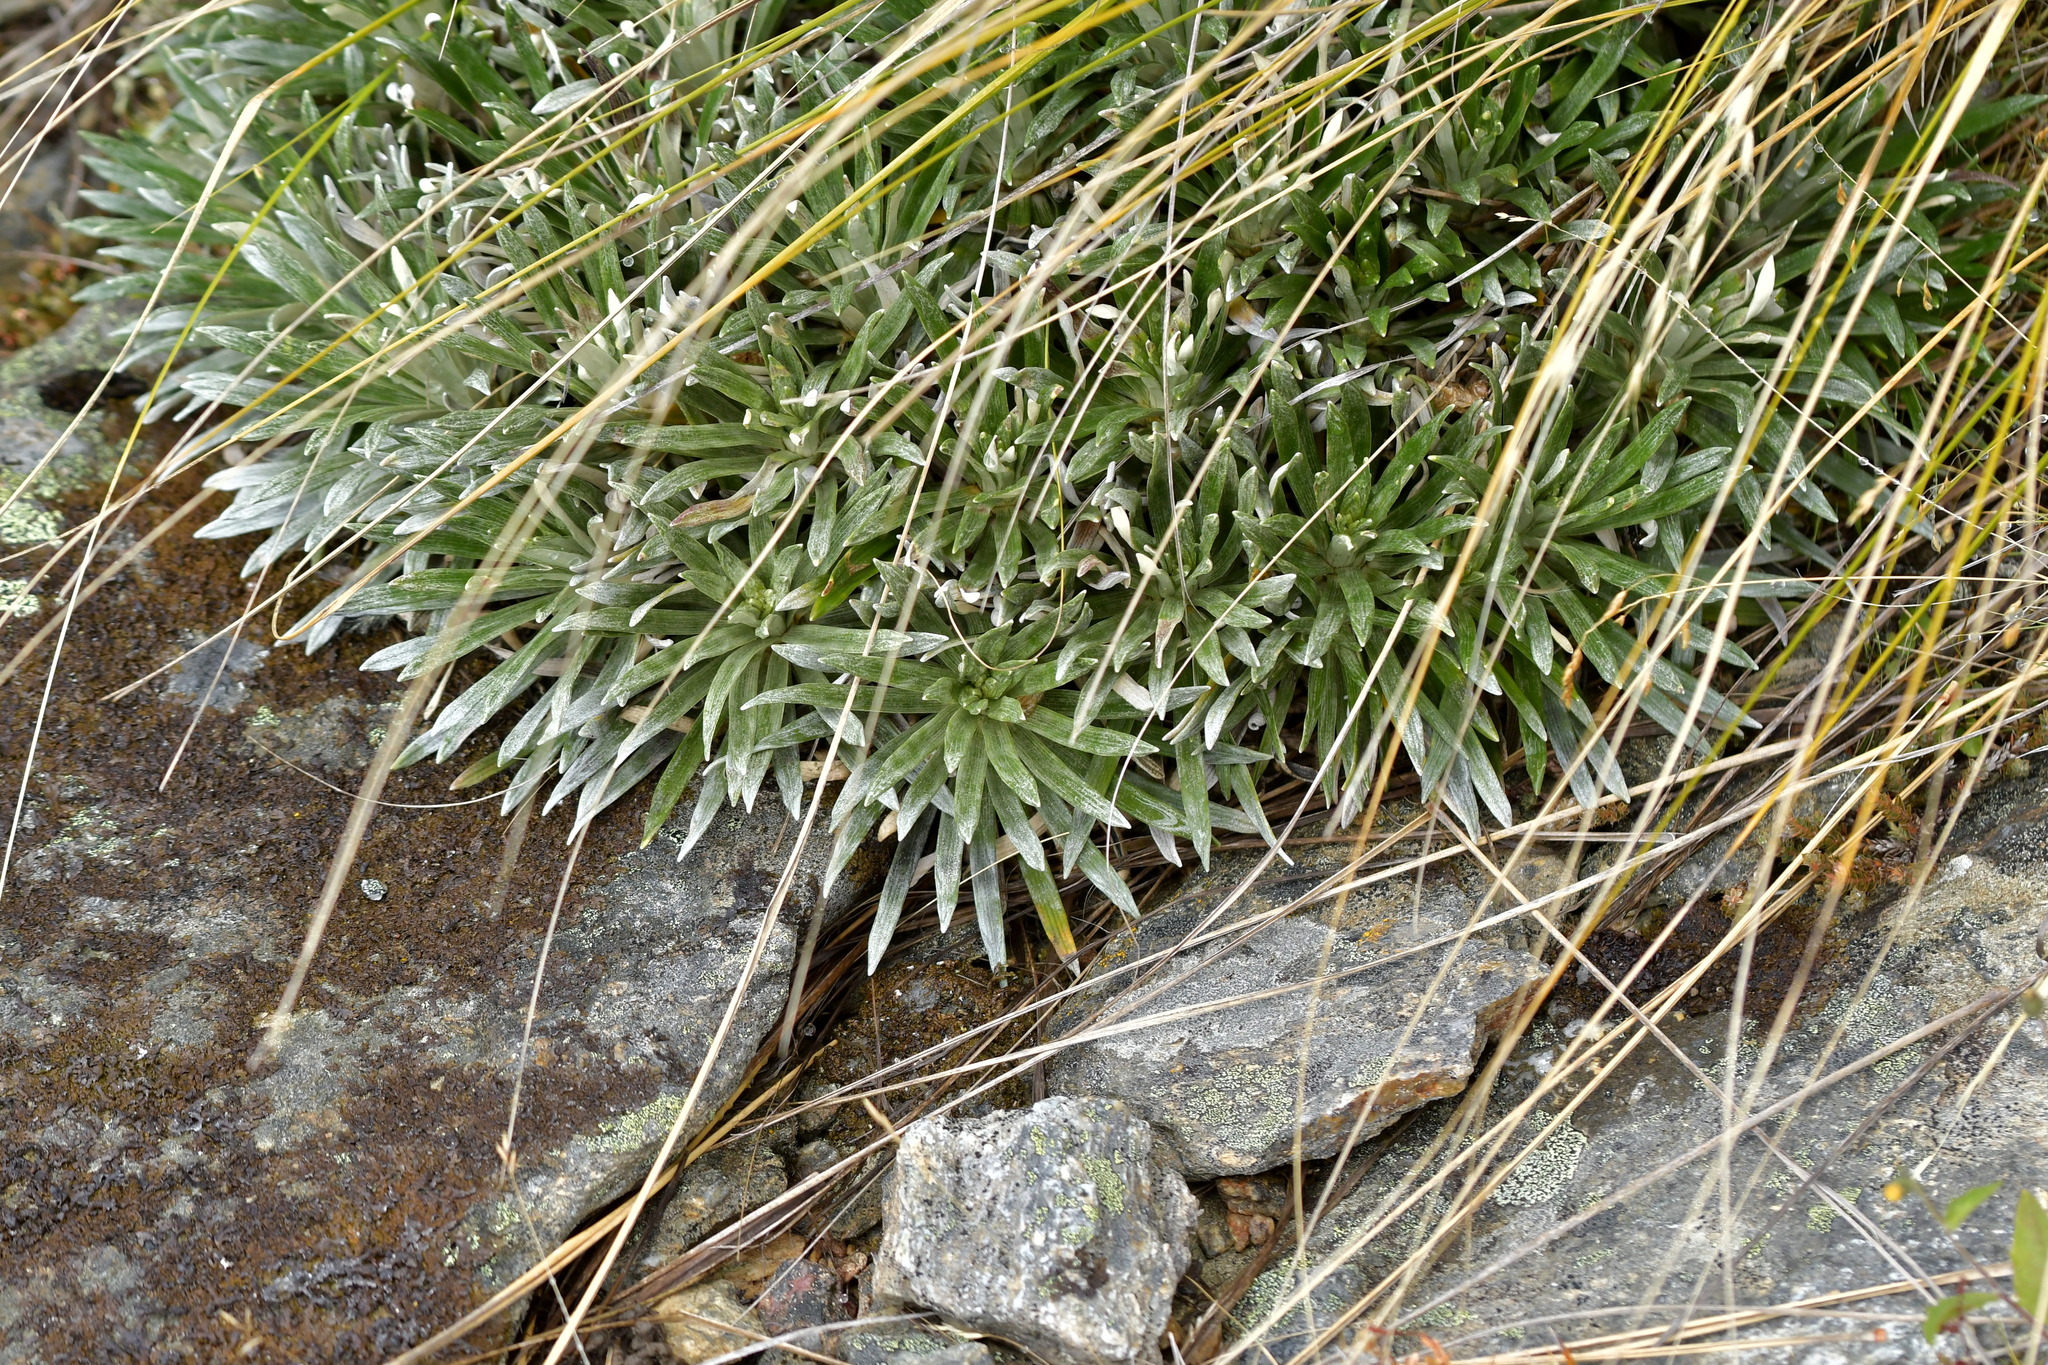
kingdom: Plantae
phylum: Tracheophyta
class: Magnoliopsida
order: Asterales
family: Asteraceae
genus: Celmisia
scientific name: Celmisia viscosa
